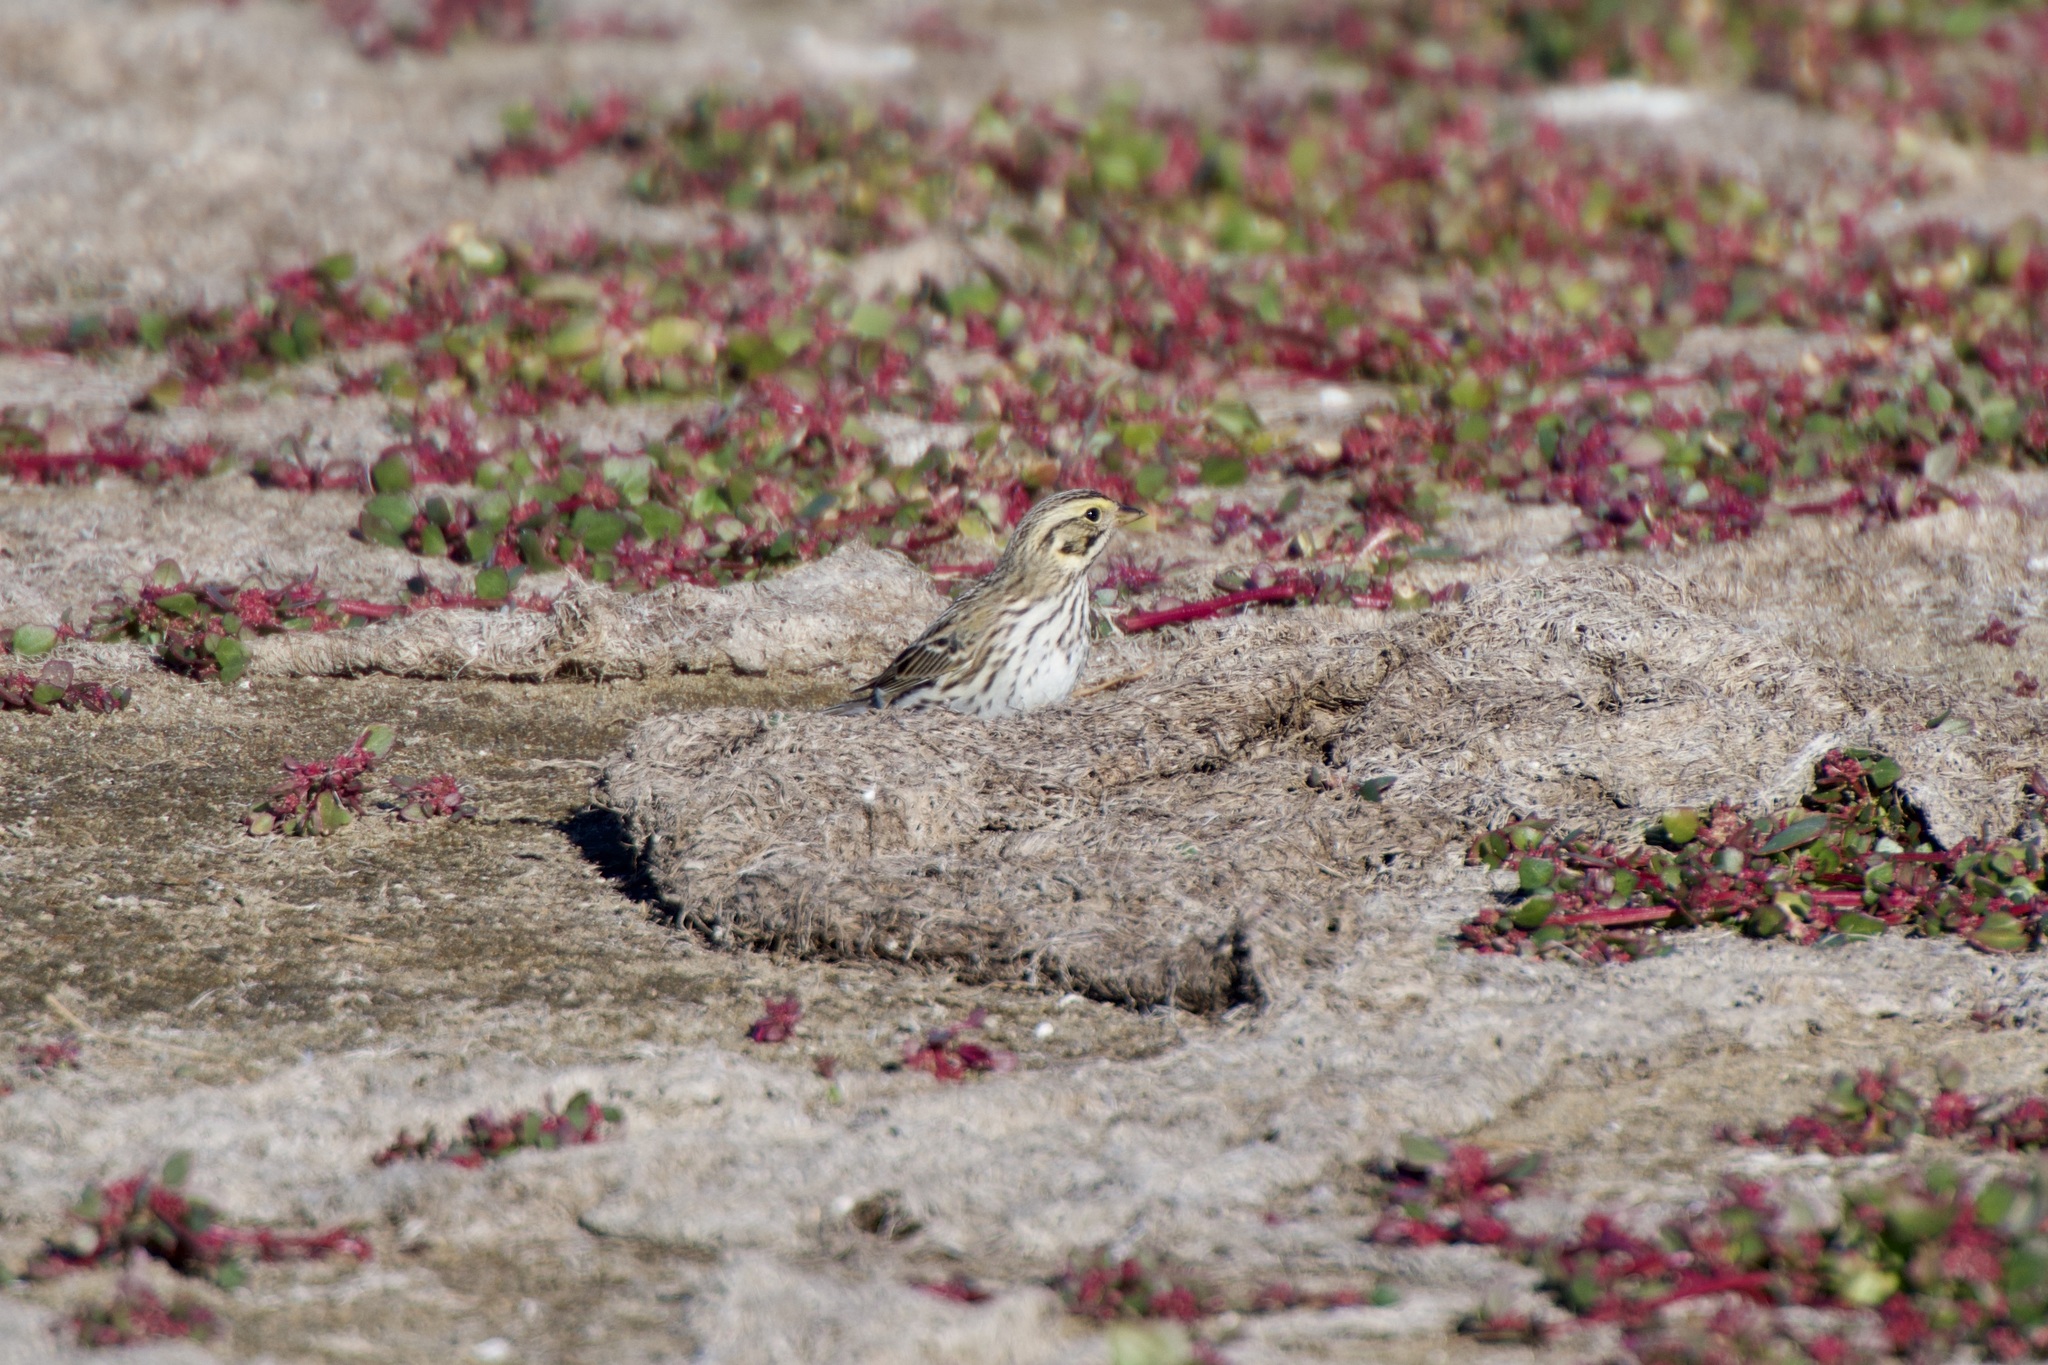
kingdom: Animalia
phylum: Chordata
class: Aves
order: Passeriformes
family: Passerellidae
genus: Passerculus
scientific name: Passerculus sandwichensis
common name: Savannah sparrow
